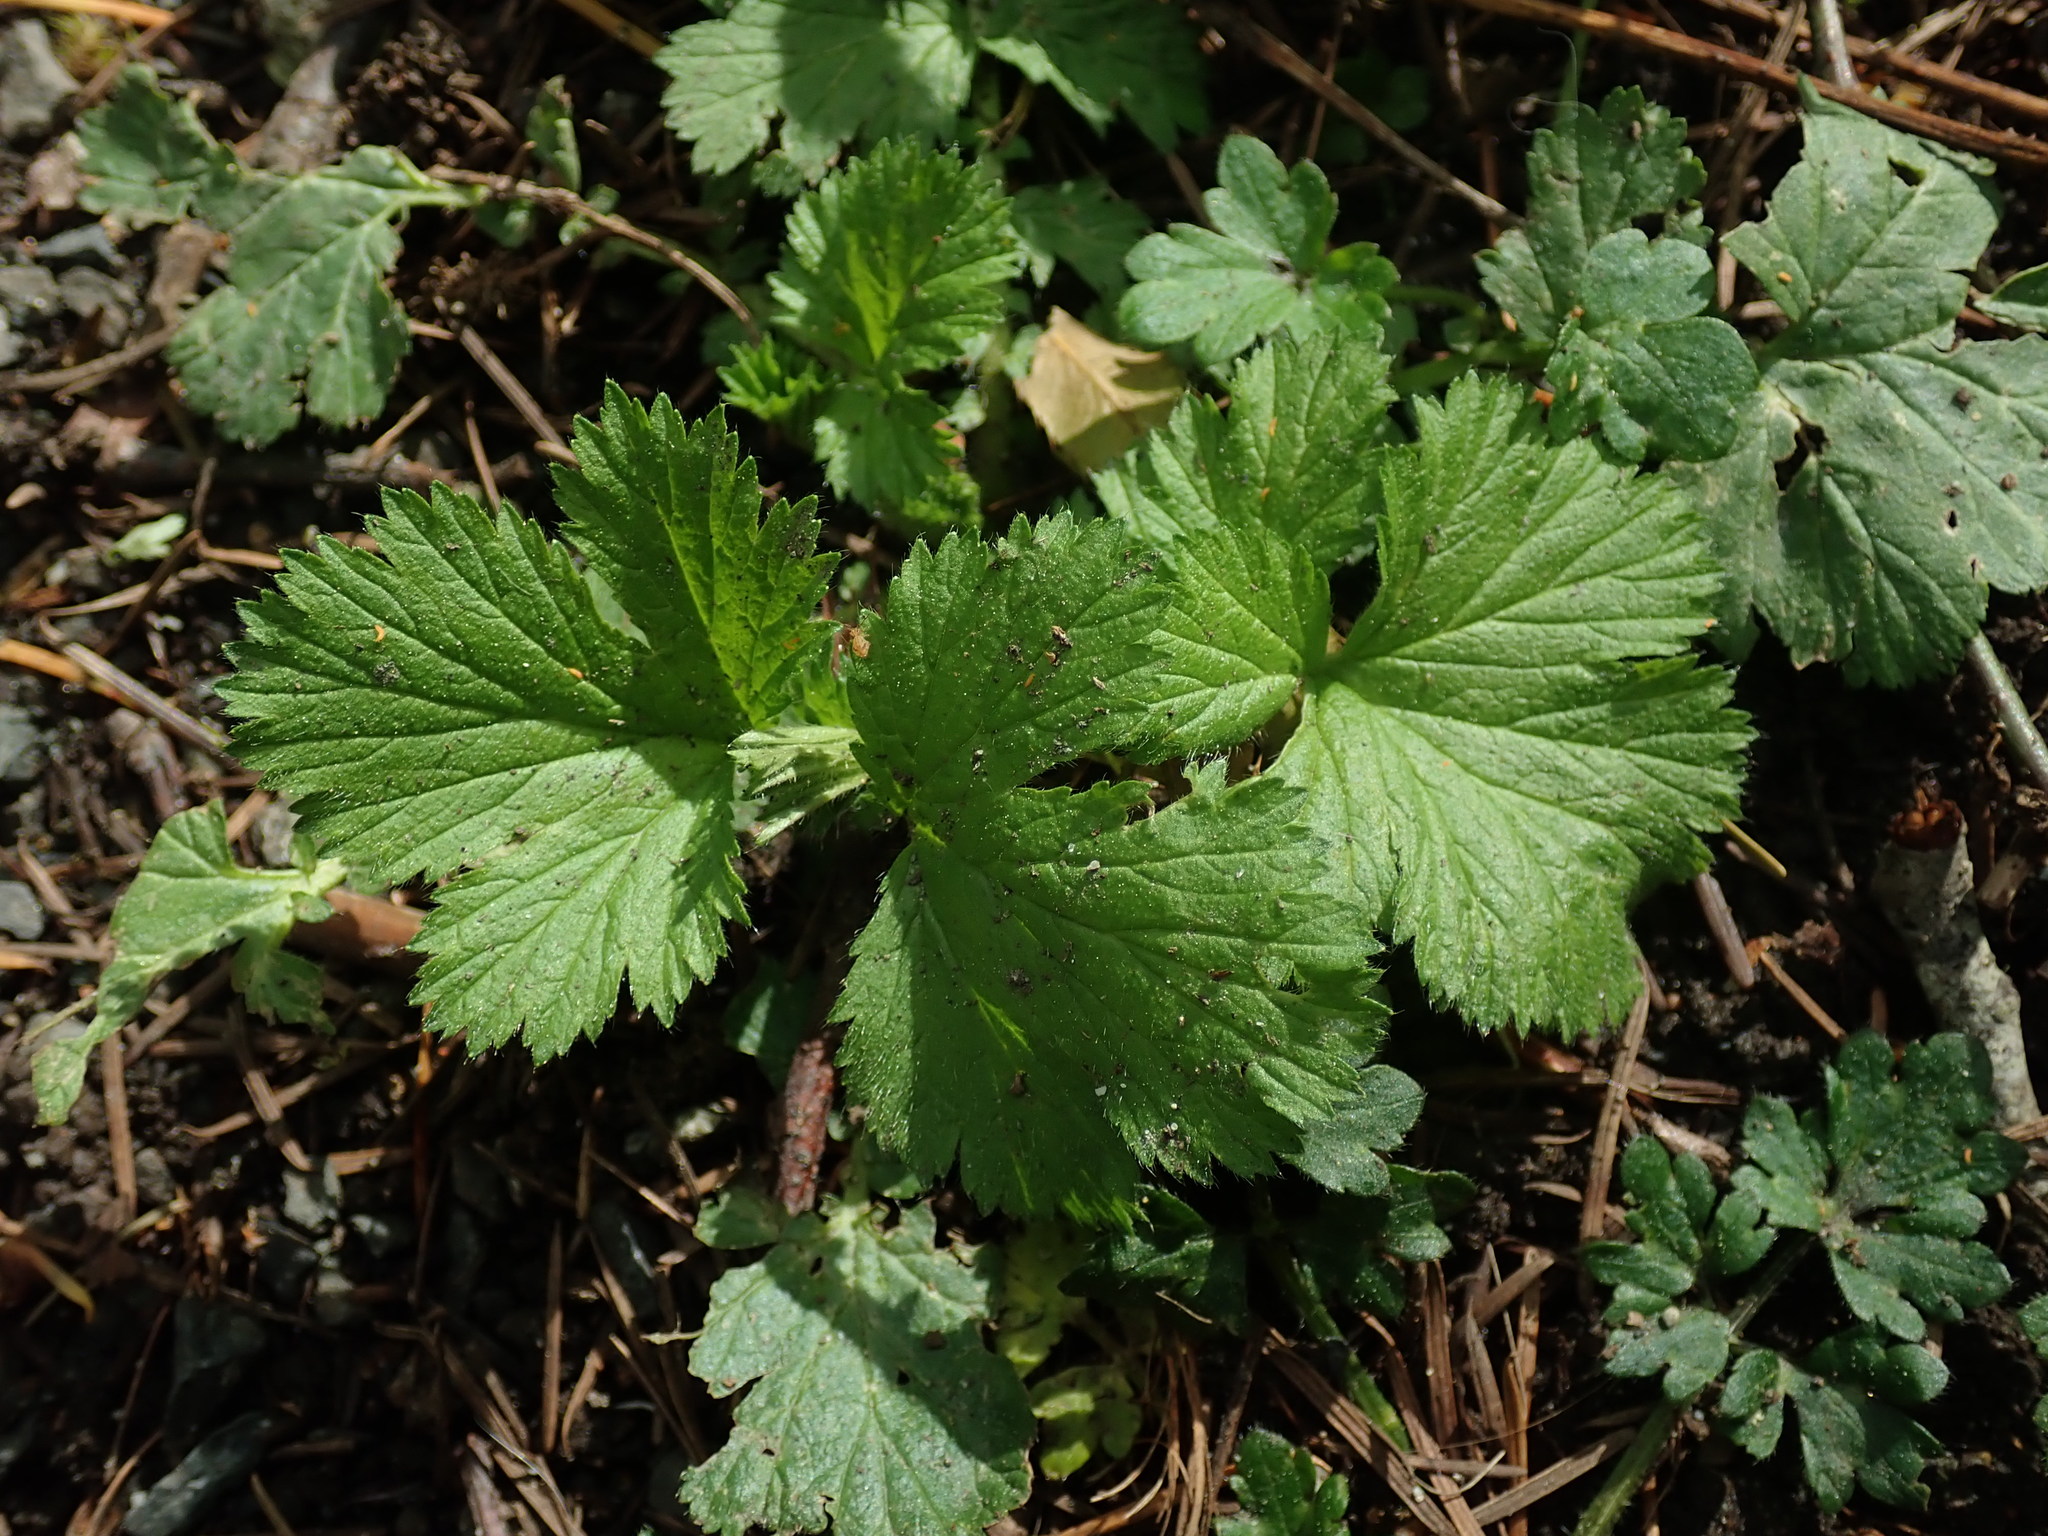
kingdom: Plantae
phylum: Tracheophyta
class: Magnoliopsida
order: Rosales
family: Rosaceae
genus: Geum
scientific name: Geum macrophyllum
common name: Large-leaved avens
